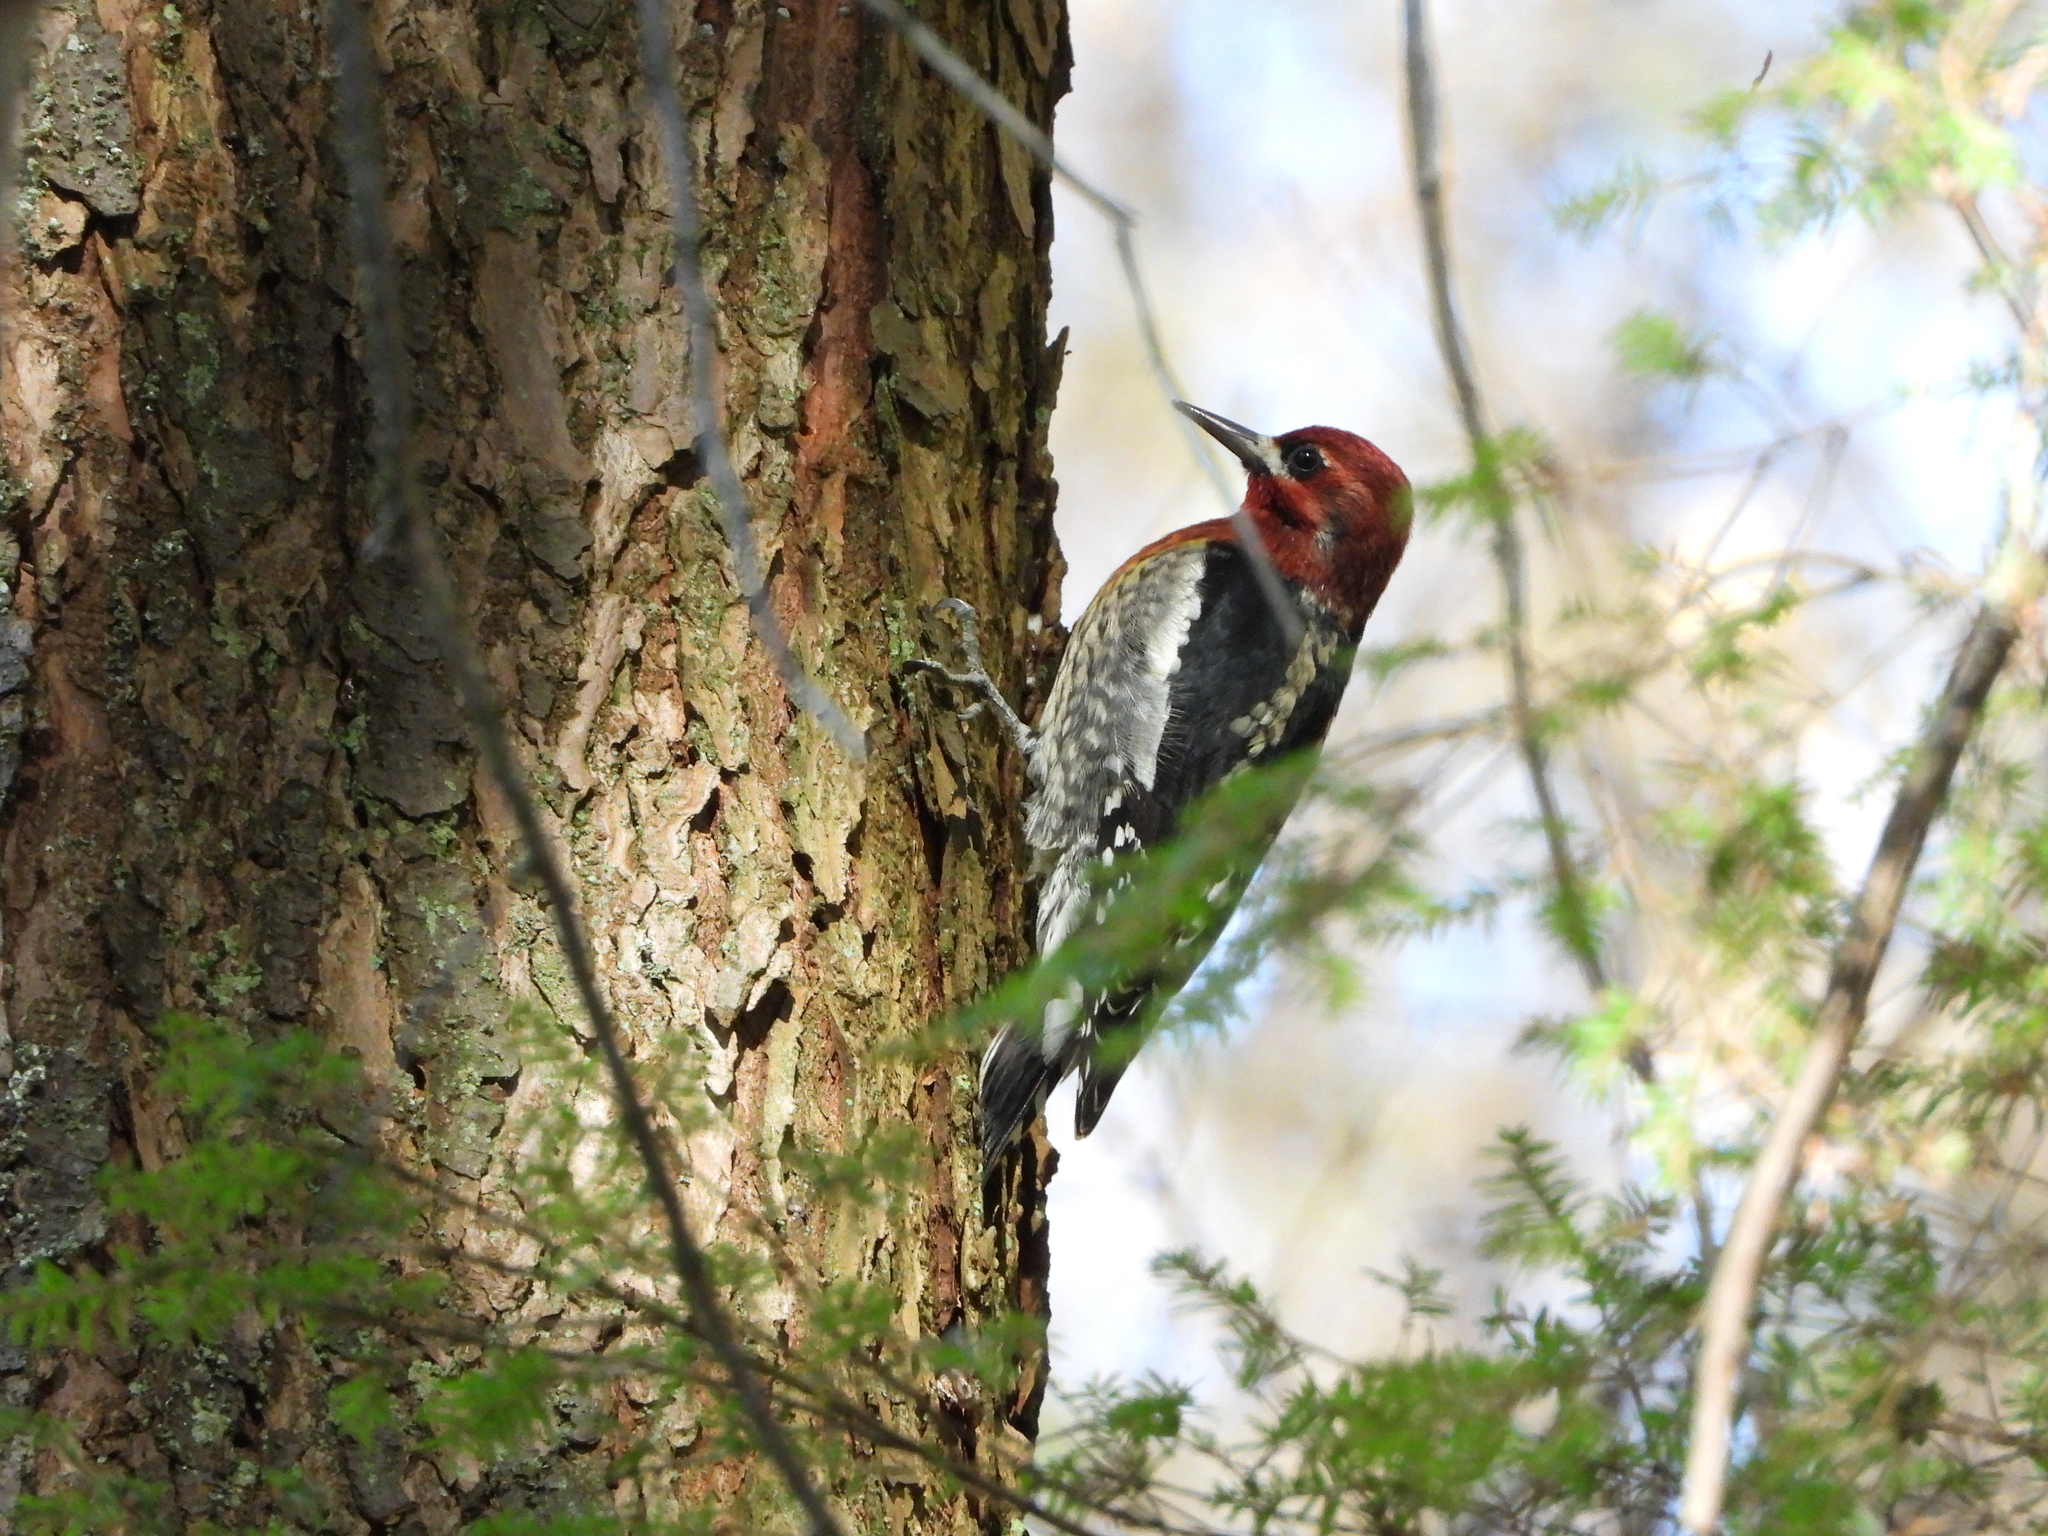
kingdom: Animalia
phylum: Chordata
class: Aves
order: Piciformes
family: Picidae
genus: Sphyrapicus
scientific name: Sphyrapicus ruber
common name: Red-breasted sapsucker
